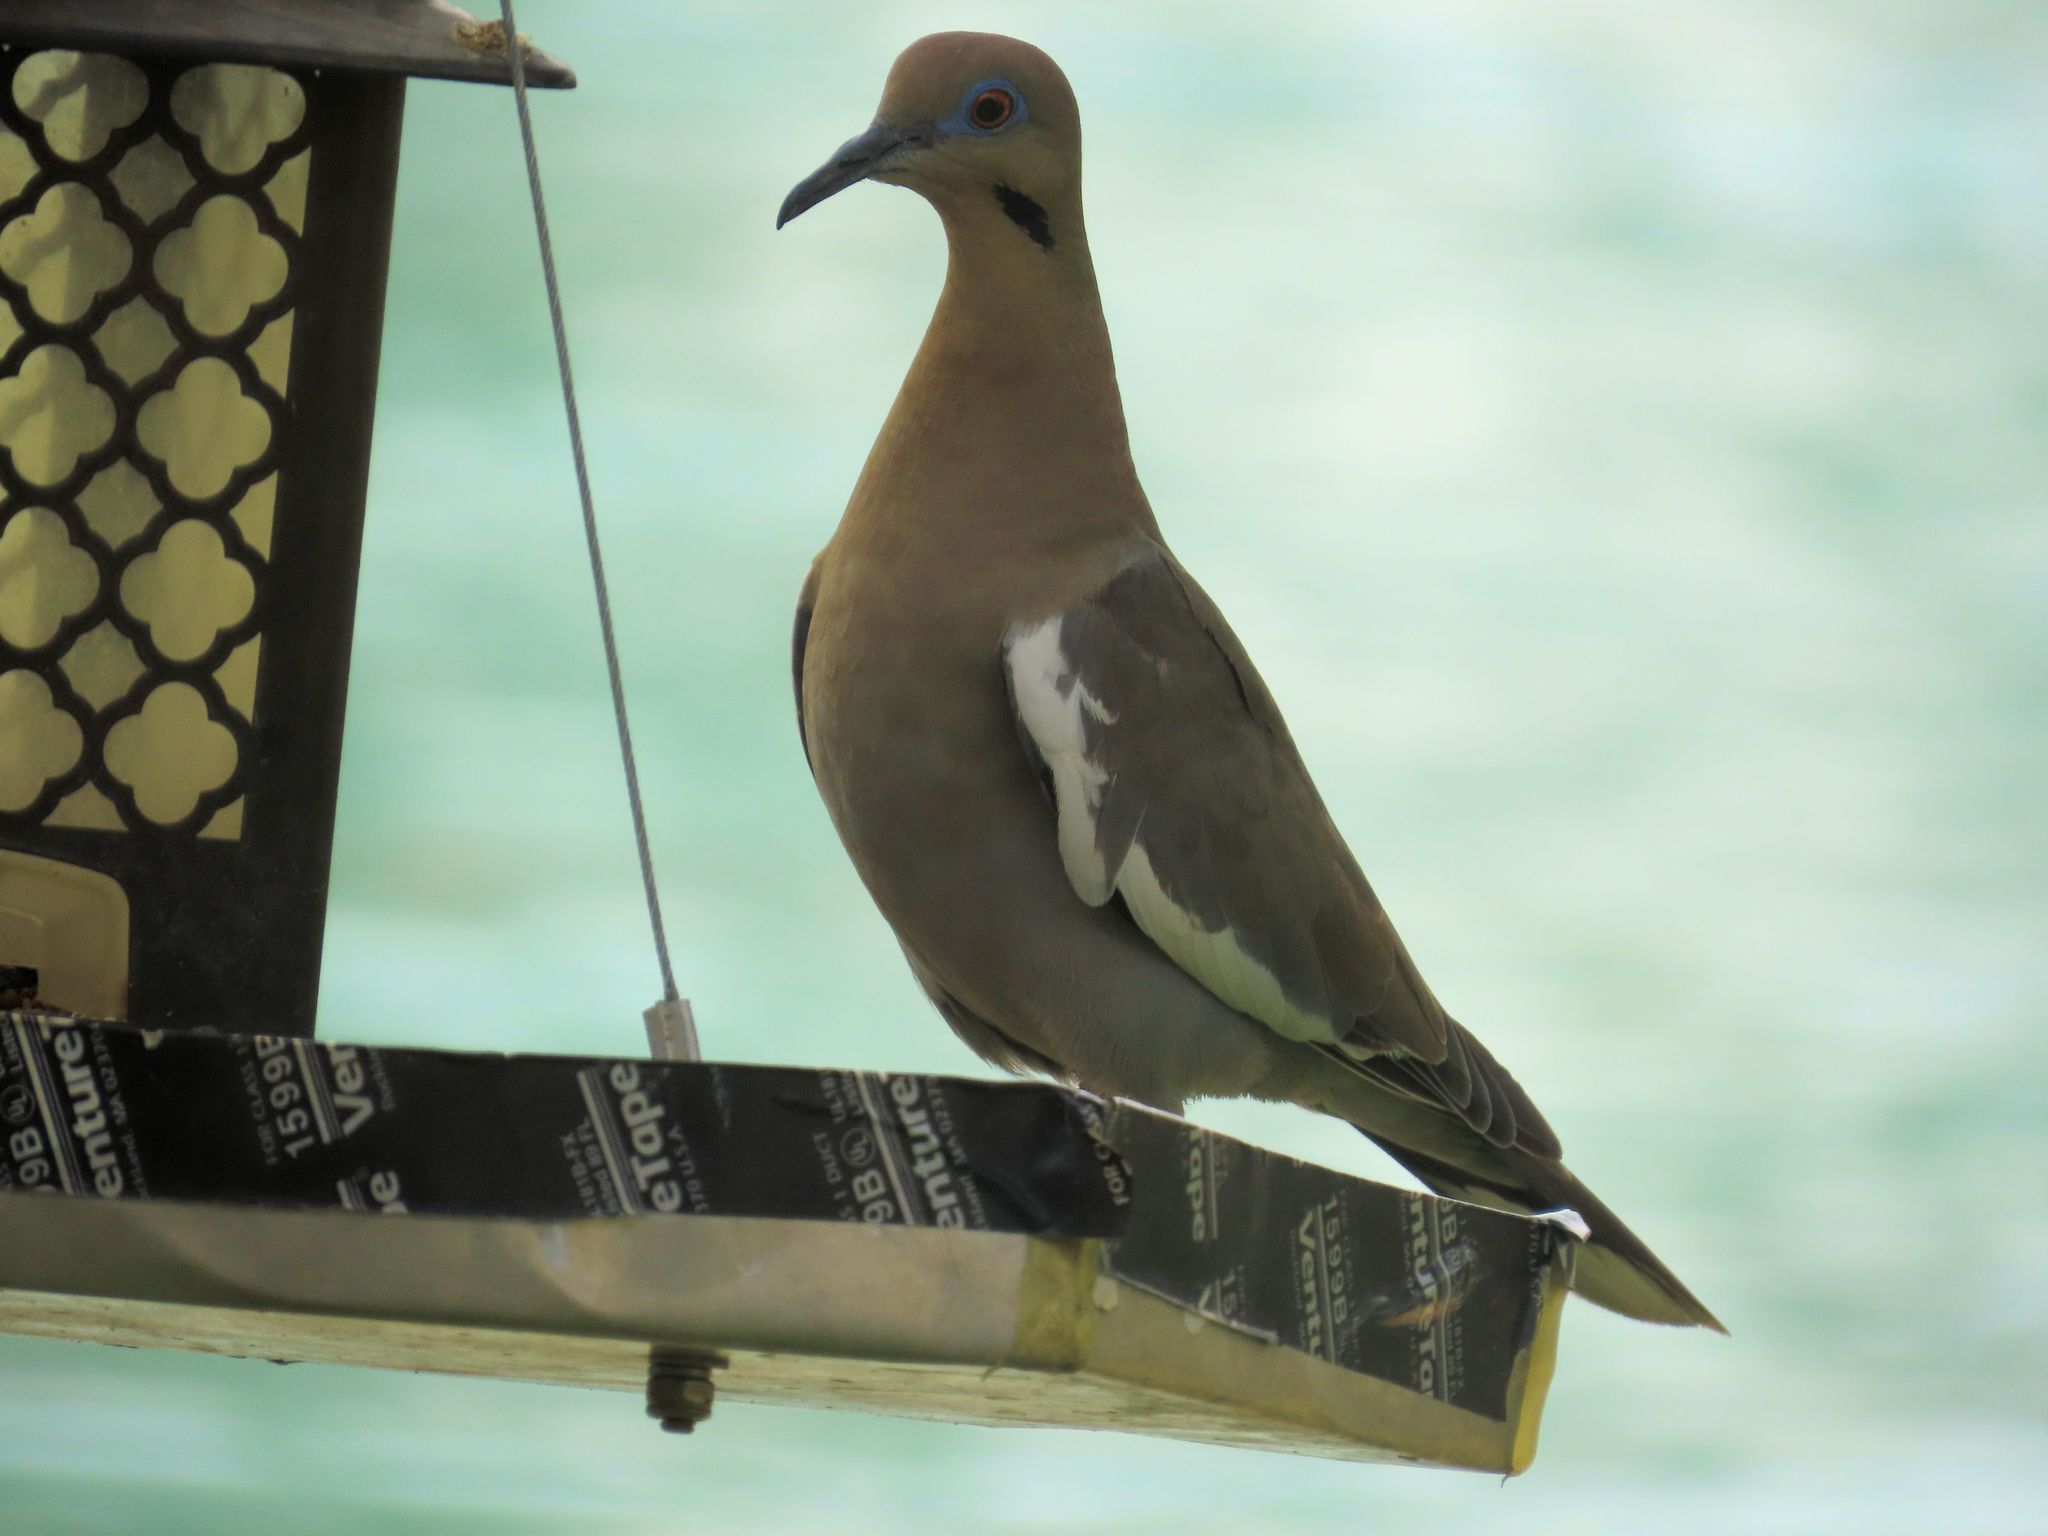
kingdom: Animalia
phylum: Chordata
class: Aves
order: Columbiformes
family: Columbidae
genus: Zenaida
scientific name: Zenaida asiatica
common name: White-winged dove
